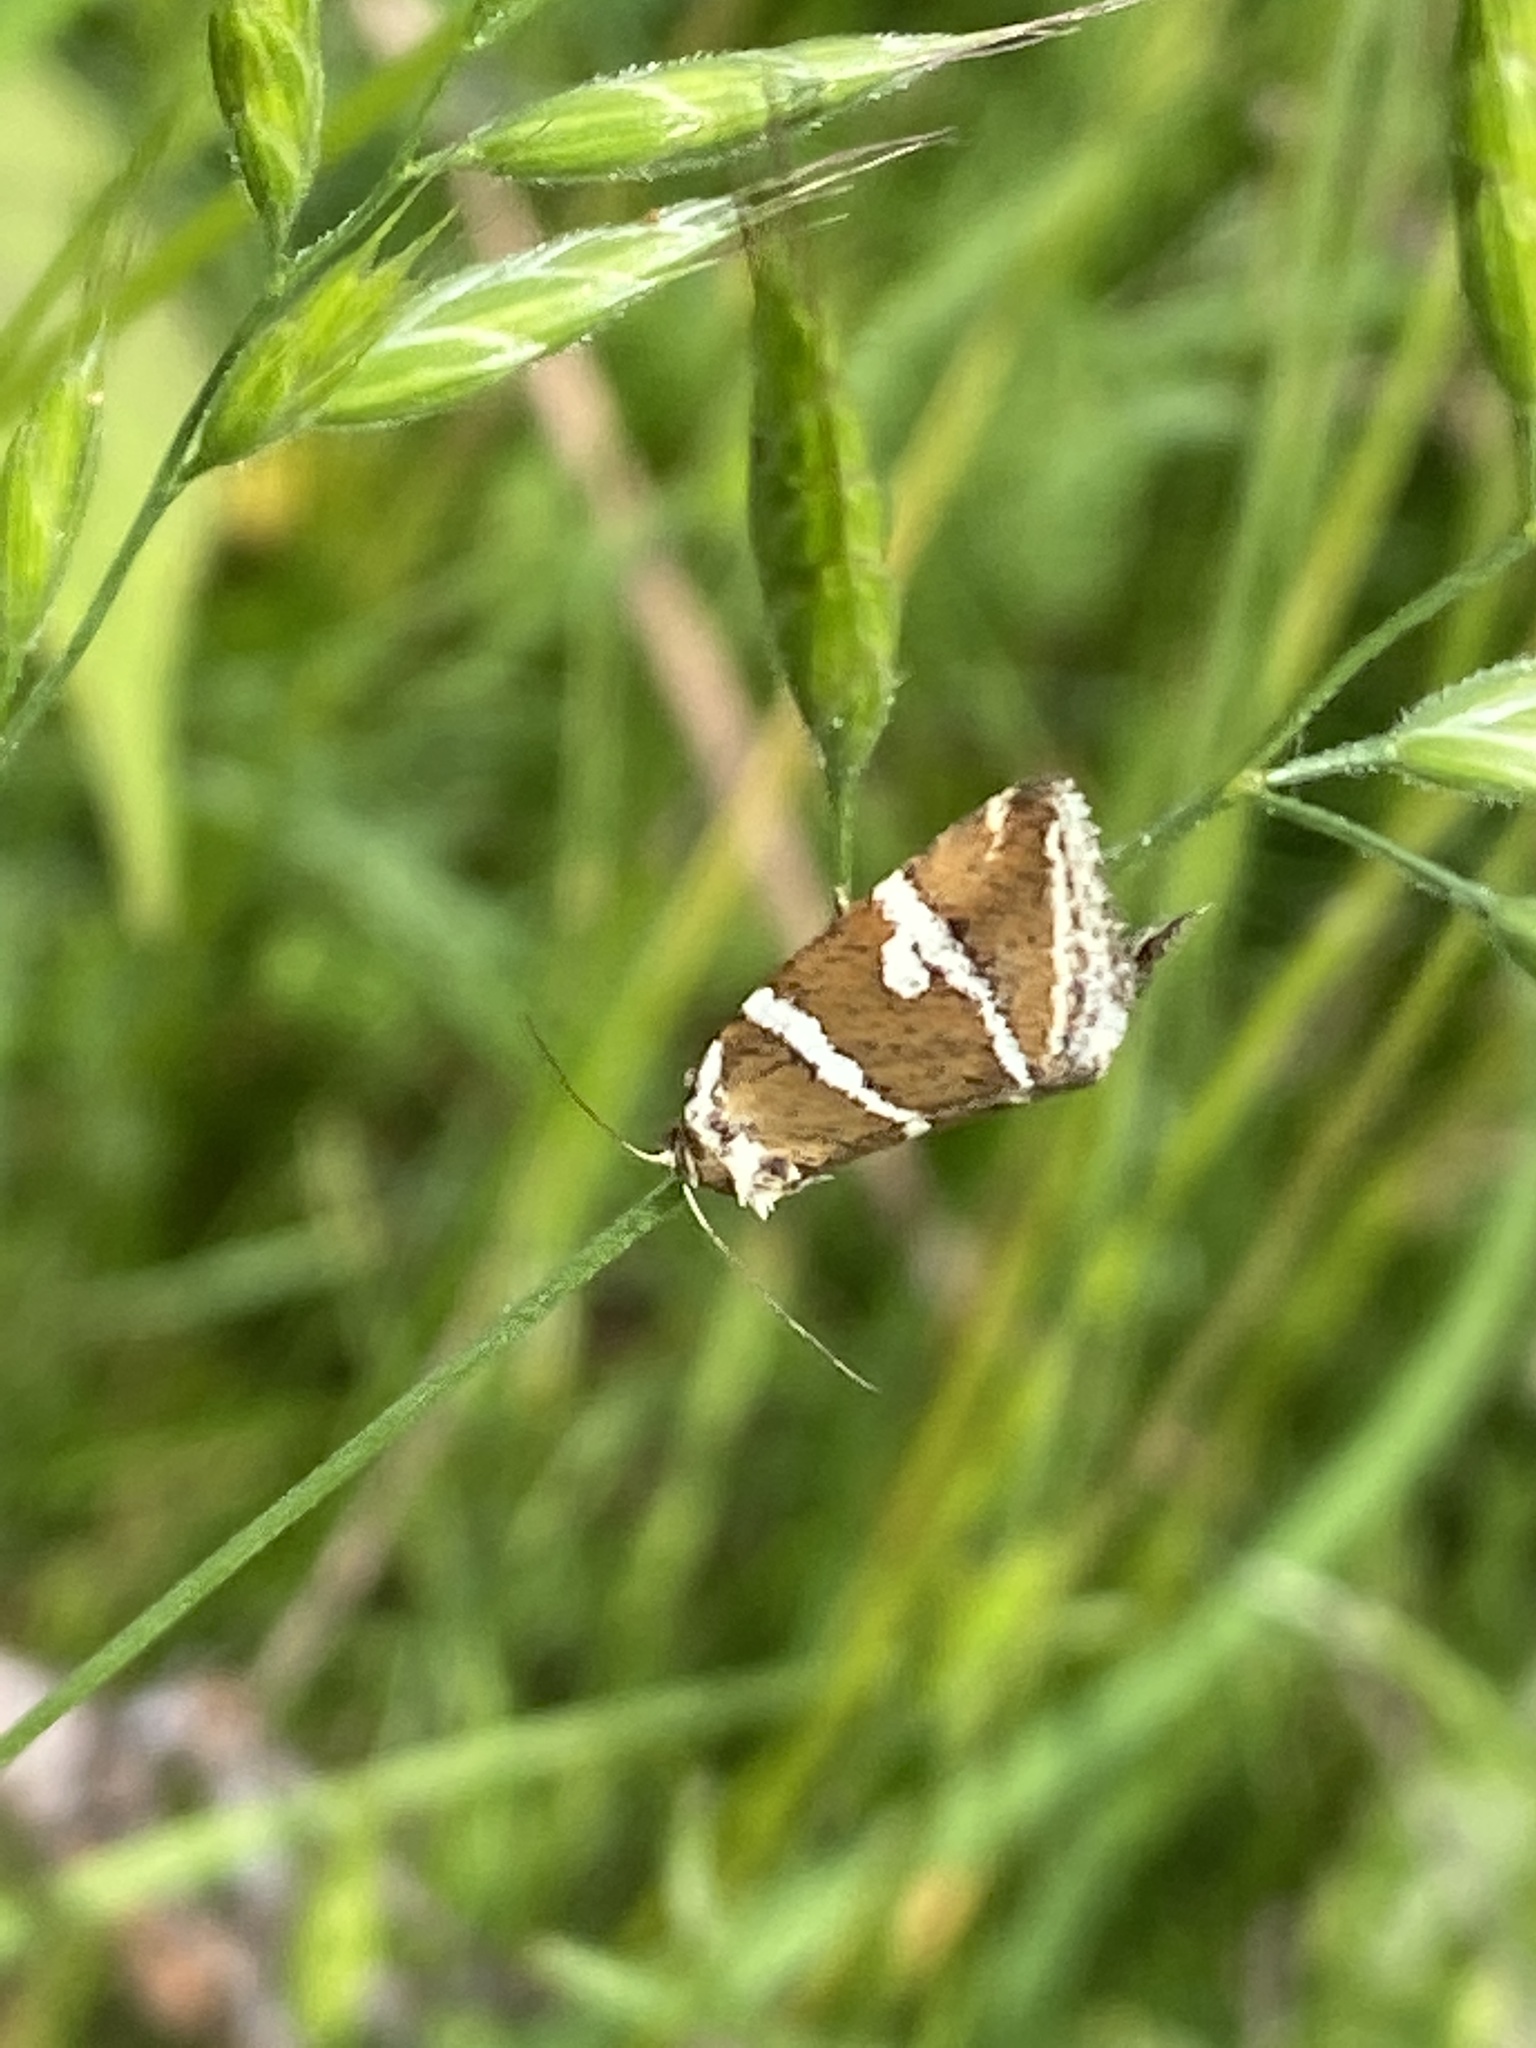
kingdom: Animalia
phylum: Arthropoda
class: Insecta
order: Lepidoptera
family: Noctuidae
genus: Deltote
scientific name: Deltote bankiana
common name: Silver barred
